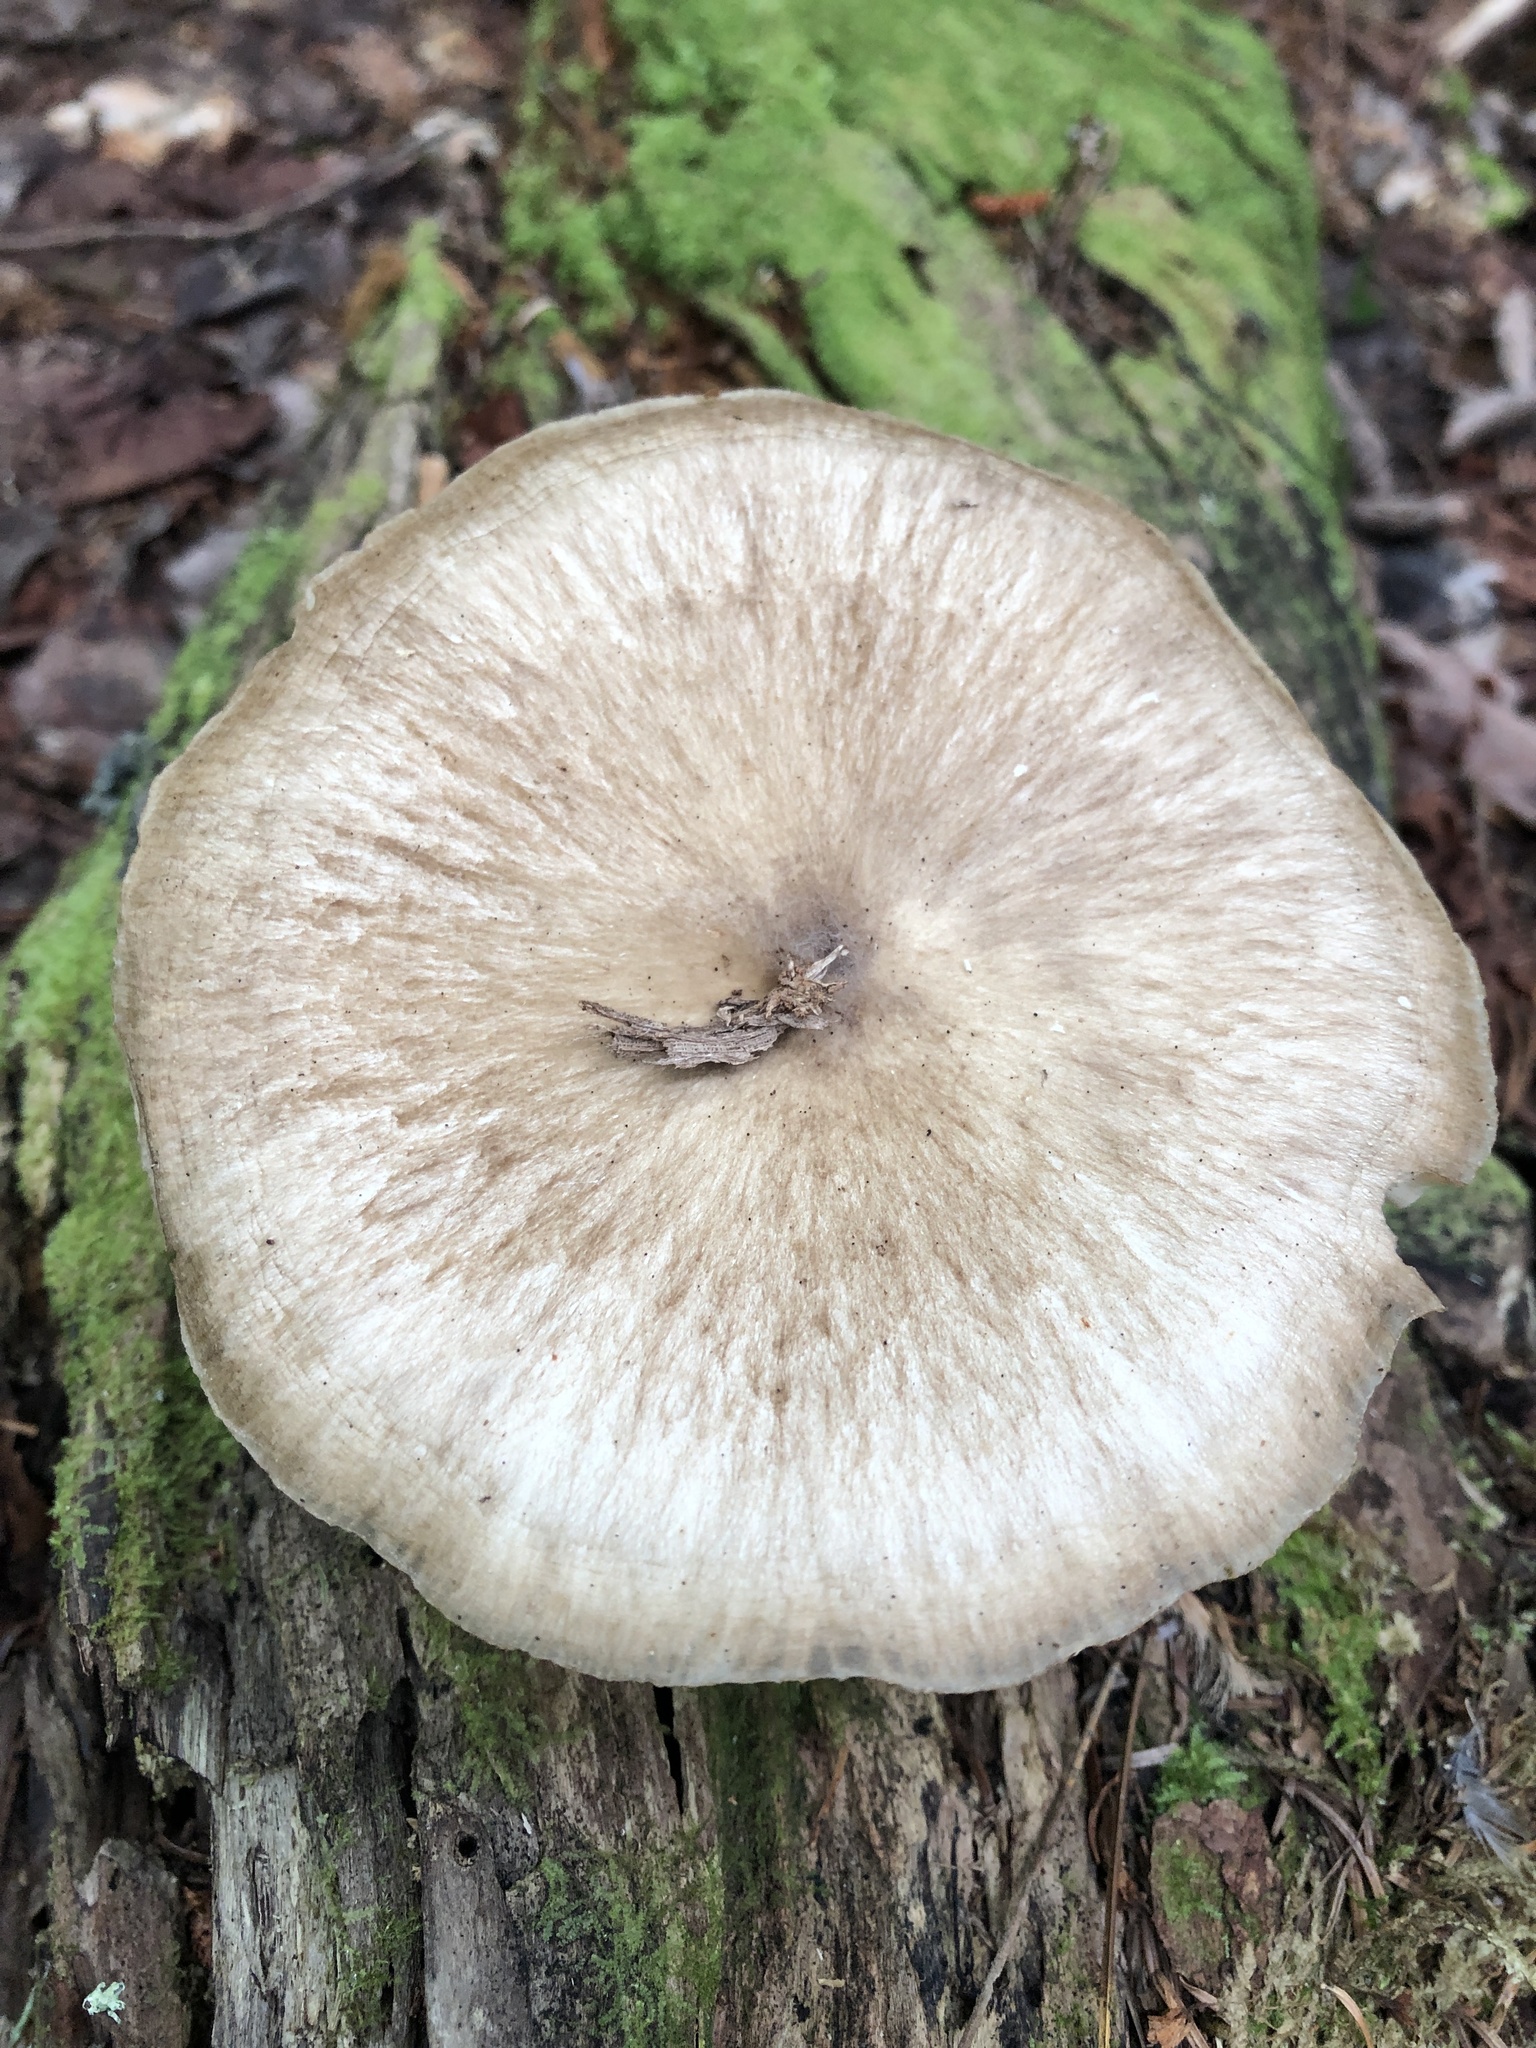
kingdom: Fungi
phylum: Basidiomycota
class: Agaricomycetes
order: Agaricales
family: Tricholomataceae
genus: Megacollybia
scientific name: Megacollybia rodmanii
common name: Eastern american platterful mushroom
